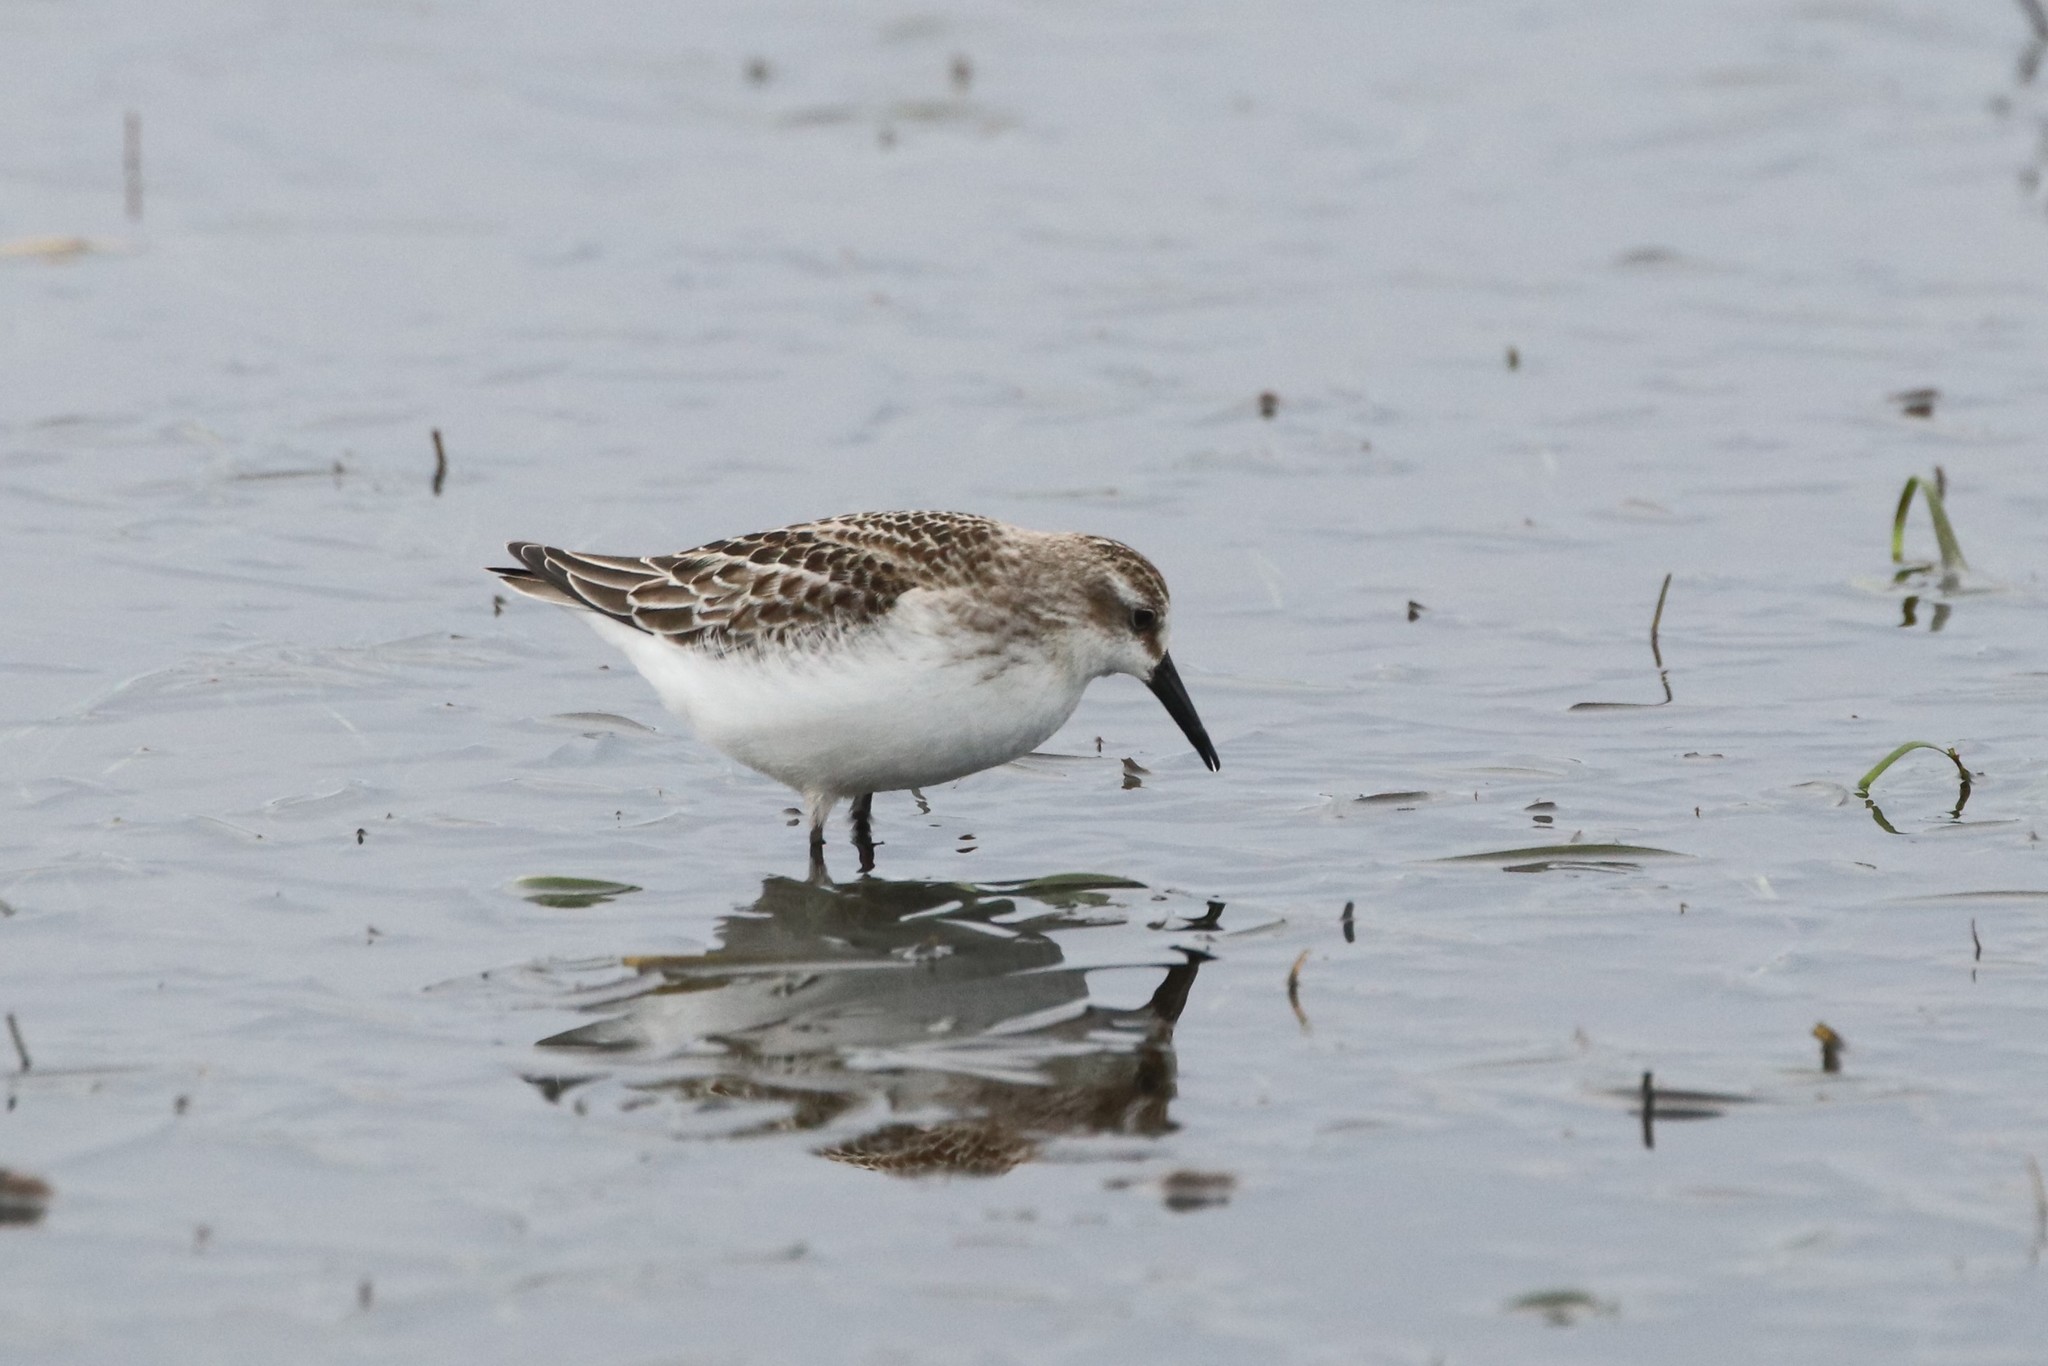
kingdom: Animalia
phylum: Chordata
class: Aves
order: Charadriiformes
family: Scolopacidae
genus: Calidris
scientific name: Calidris pusilla
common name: Semipalmated sandpiper
